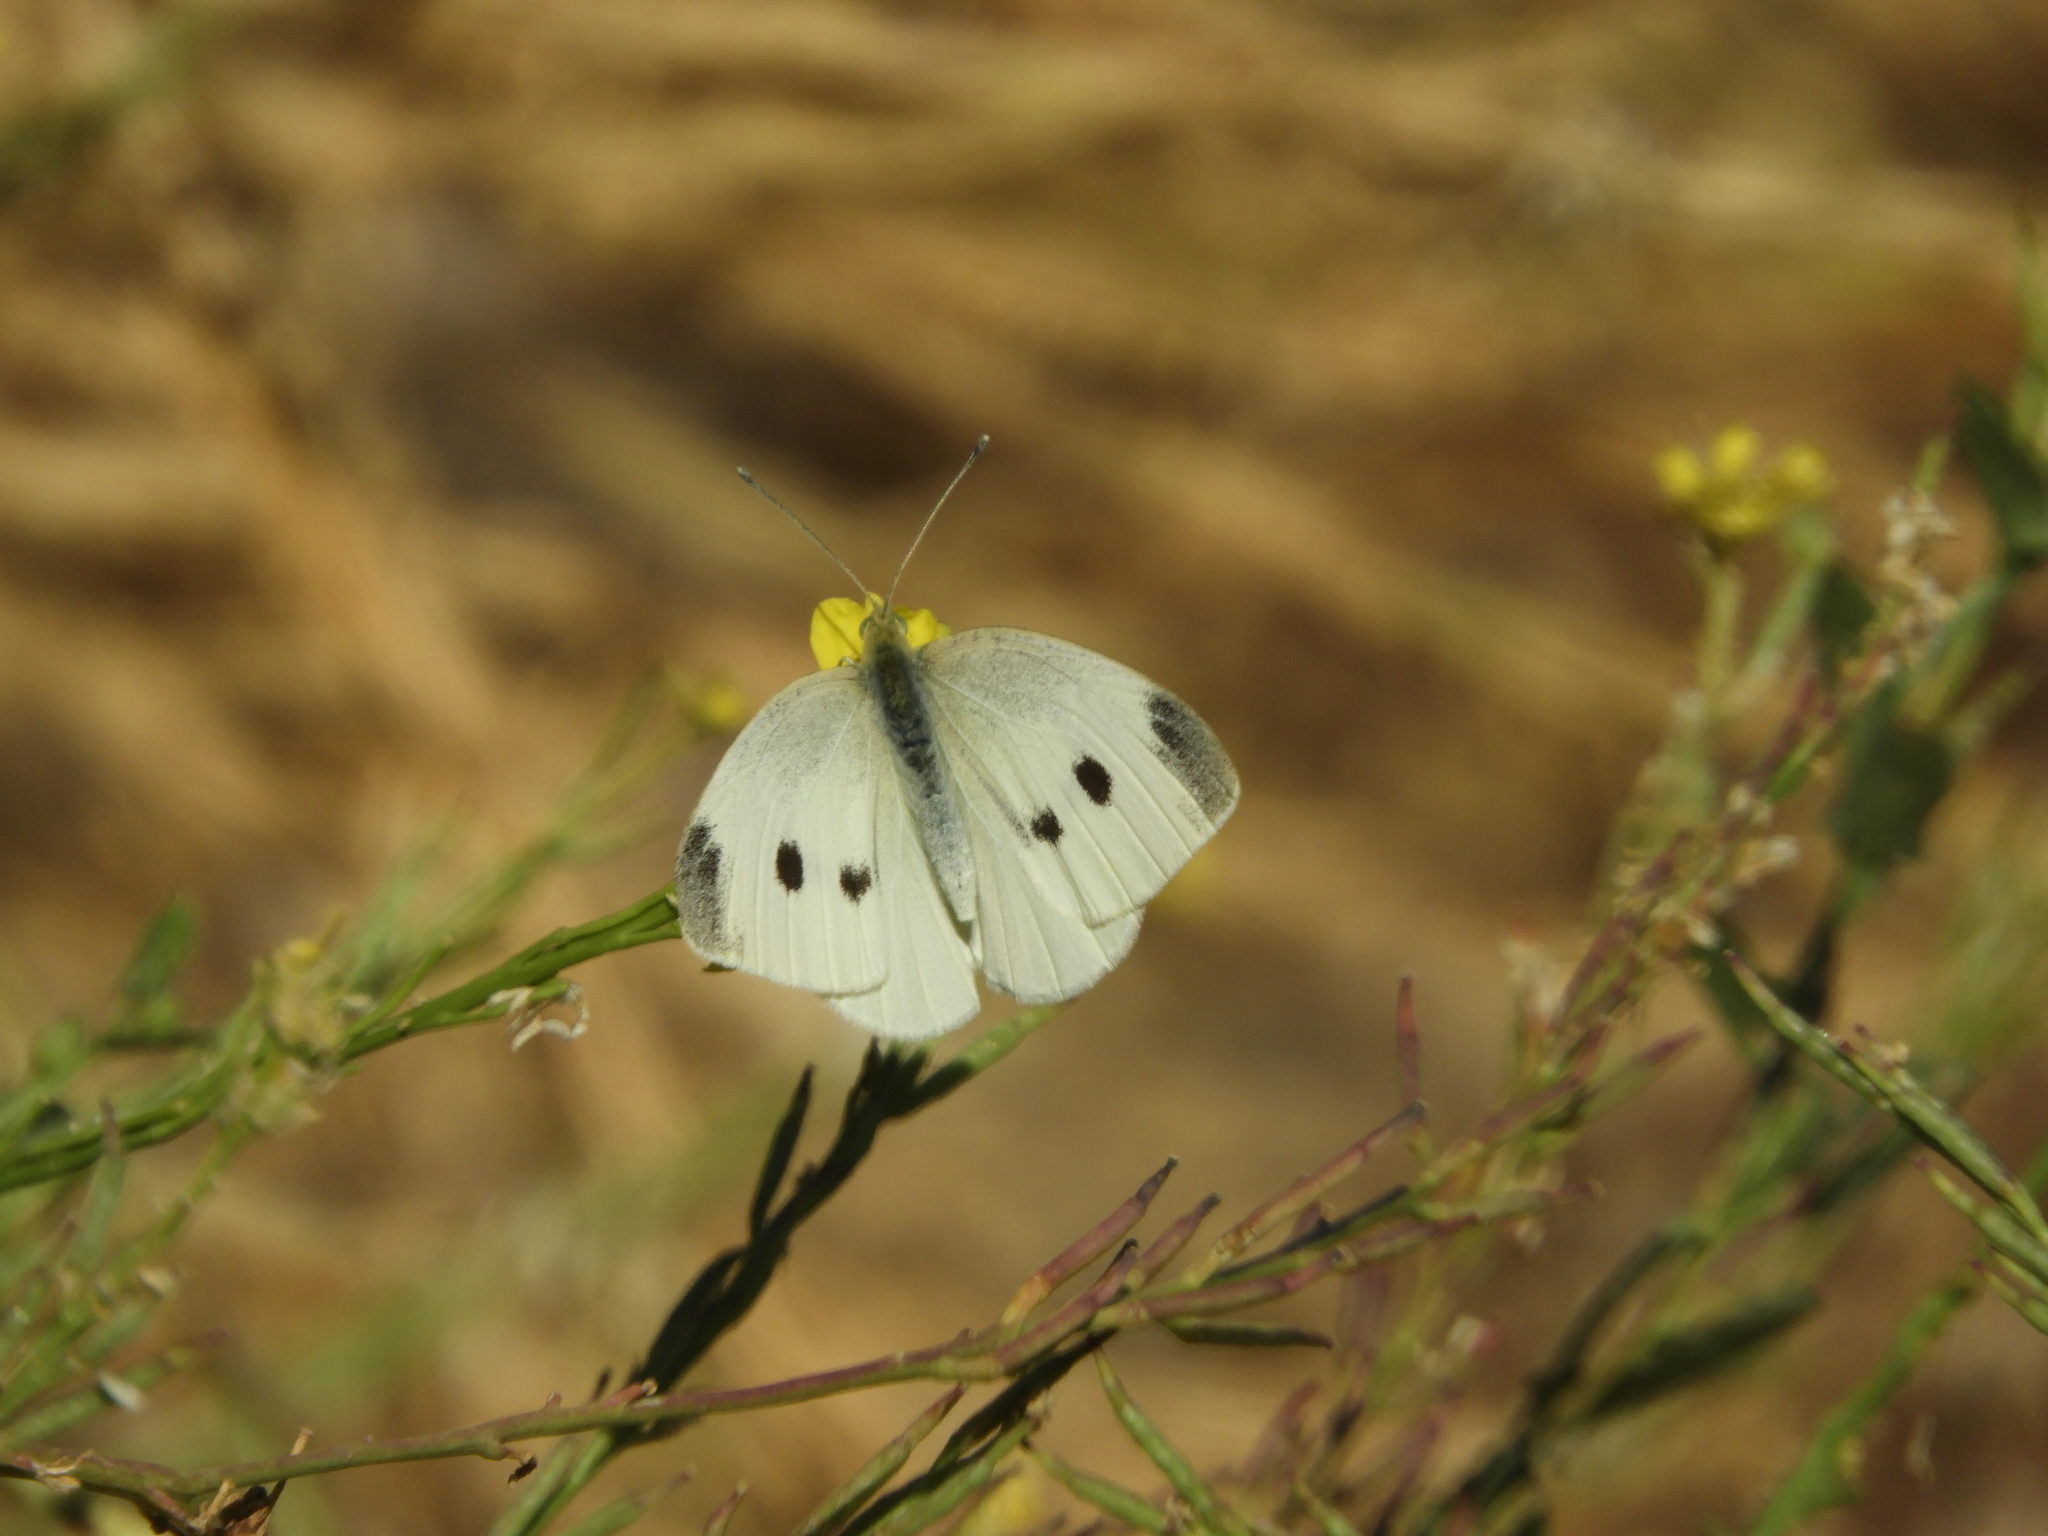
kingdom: Animalia
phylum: Arthropoda
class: Insecta
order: Lepidoptera
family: Pieridae
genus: Pieris
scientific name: Pieris rapae
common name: Small white
